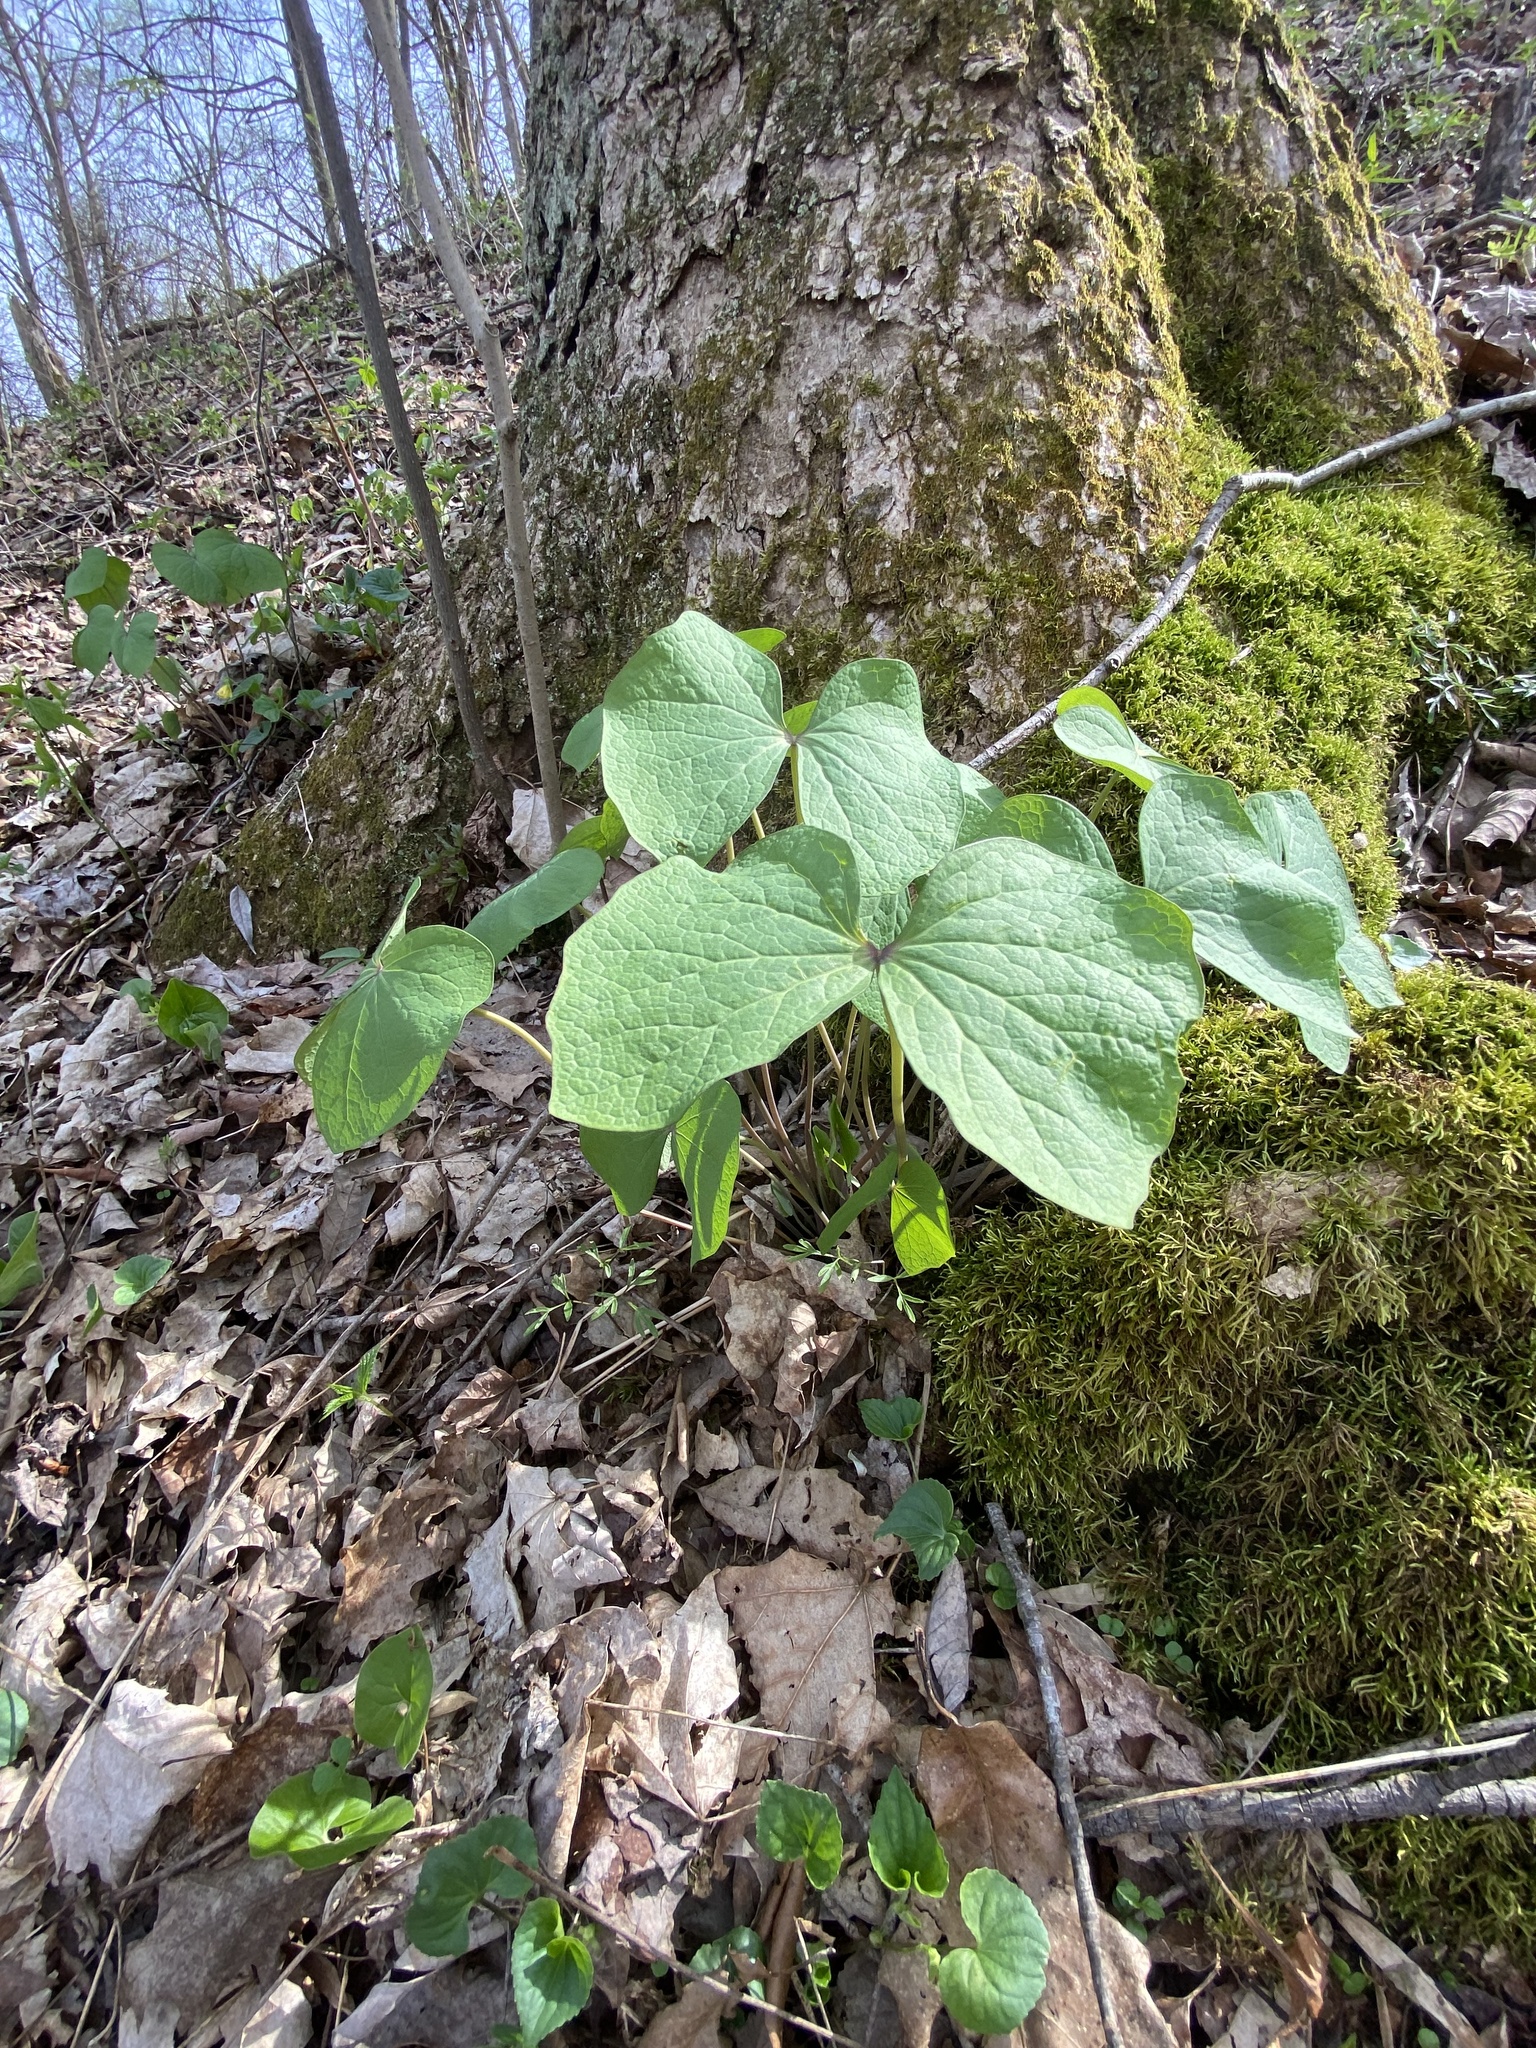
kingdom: Plantae
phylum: Tracheophyta
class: Magnoliopsida
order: Ranunculales
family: Berberidaceae
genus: Jeffersonia
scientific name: Jeffersonia diphylla
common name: Rheumatism-root
